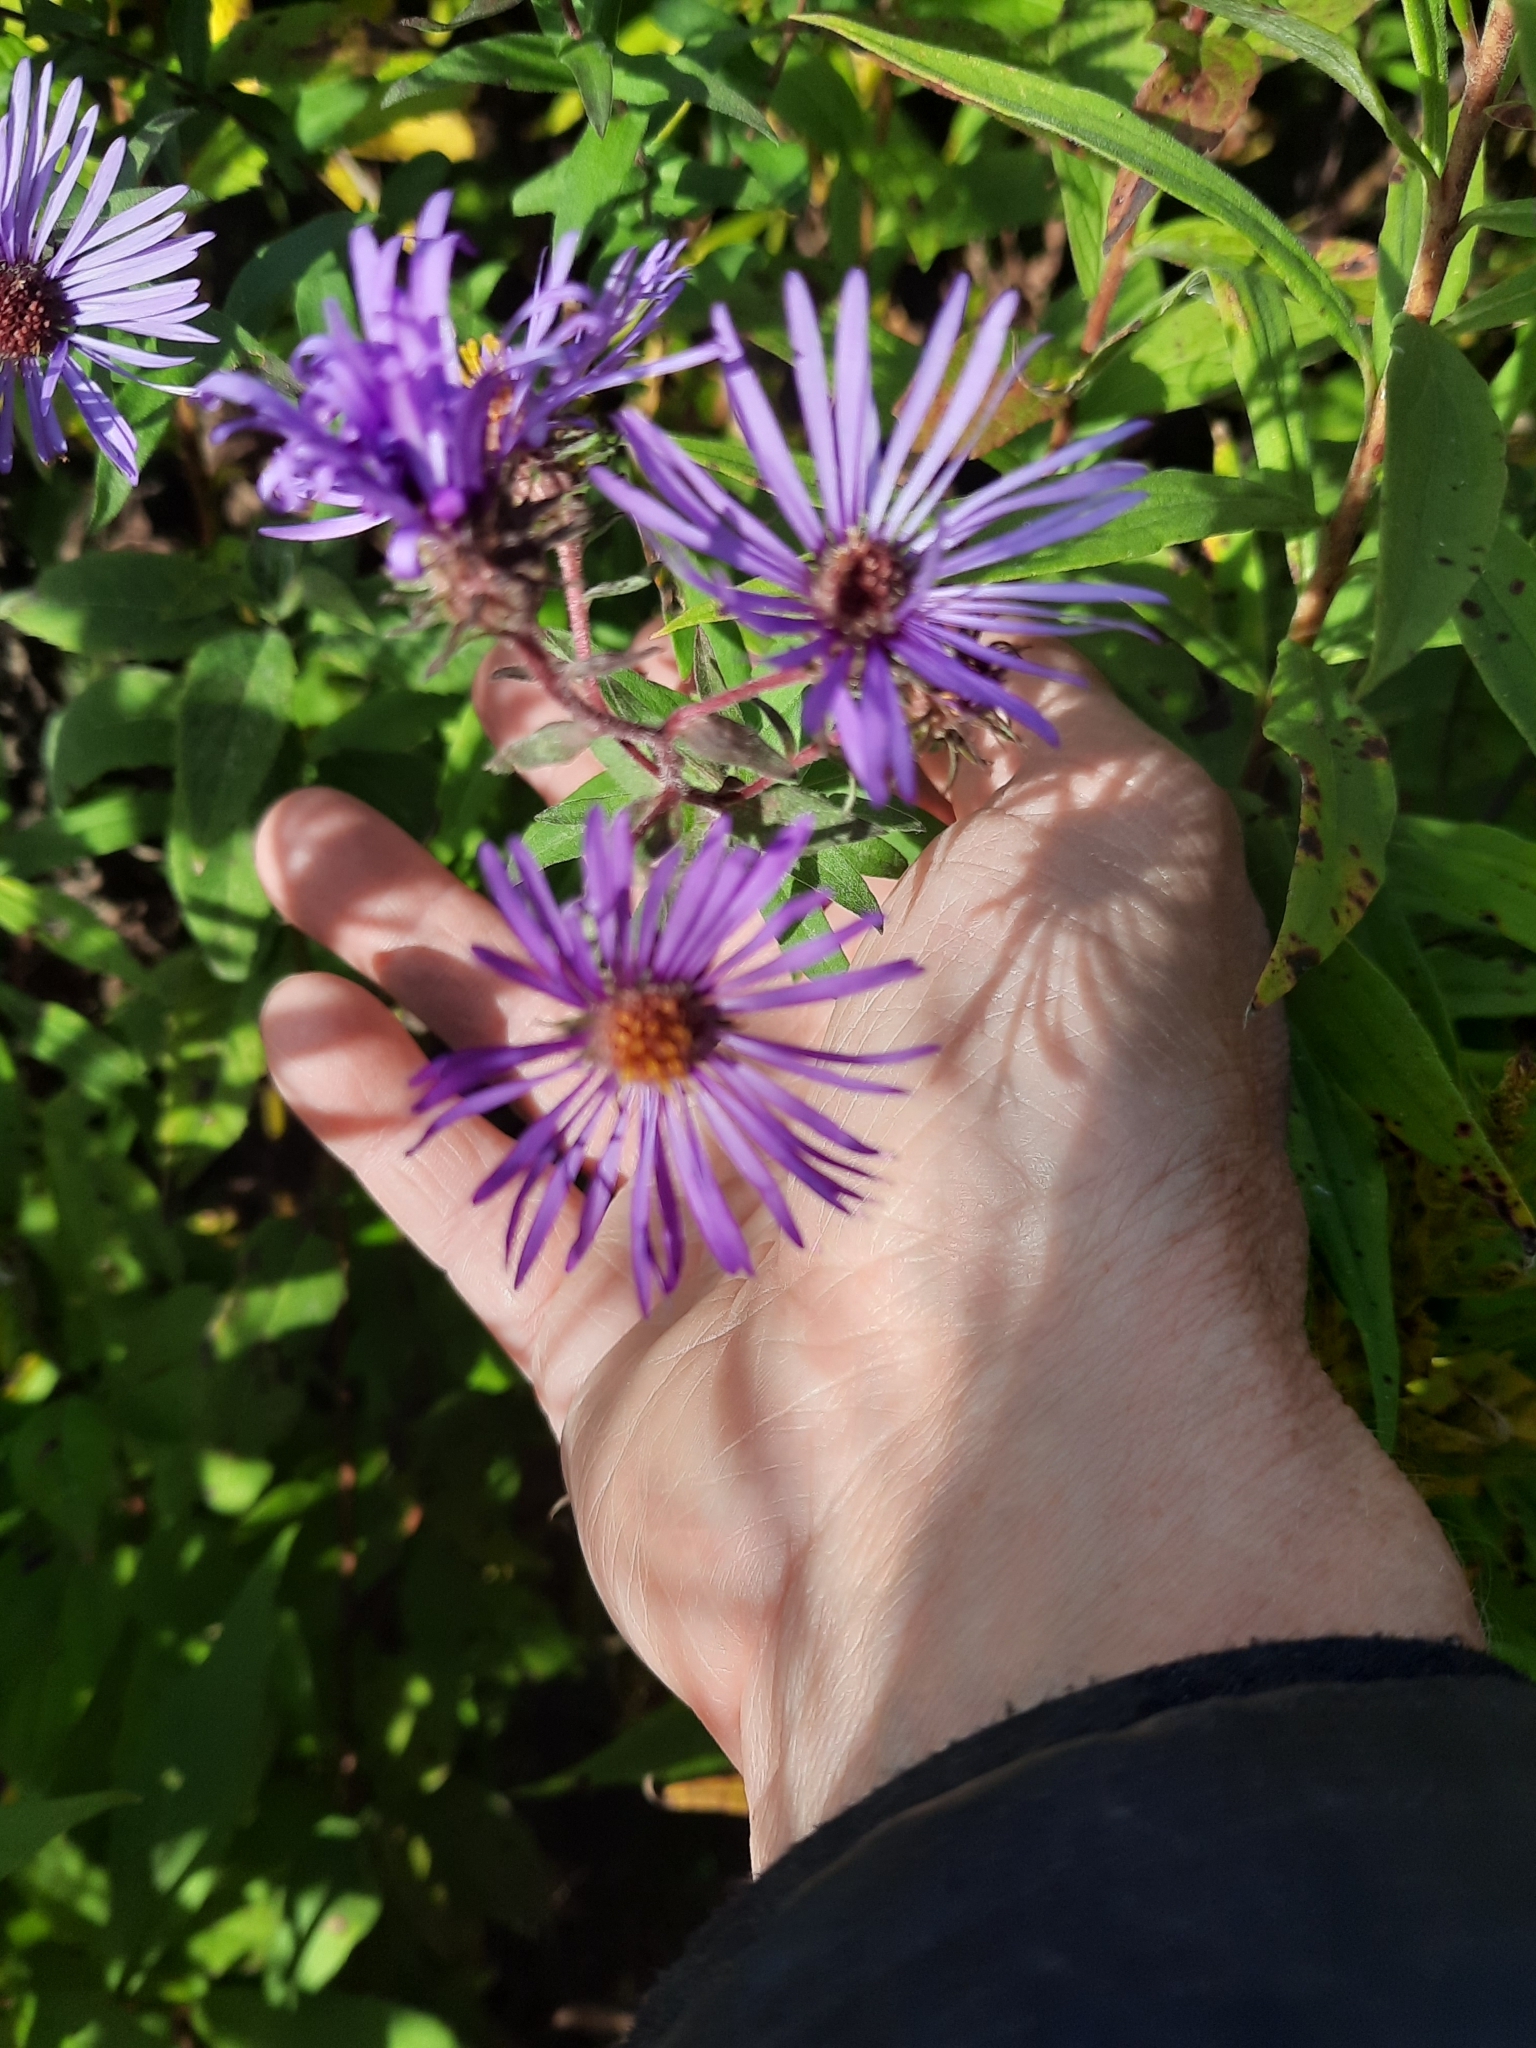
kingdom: Plantae
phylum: Tracheophyta
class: Magnoliopsida
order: Asterales
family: Asteraceae
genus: Symphyotrichum
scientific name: Symphyotrichum novae-angliae
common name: Michaelmas daisy
